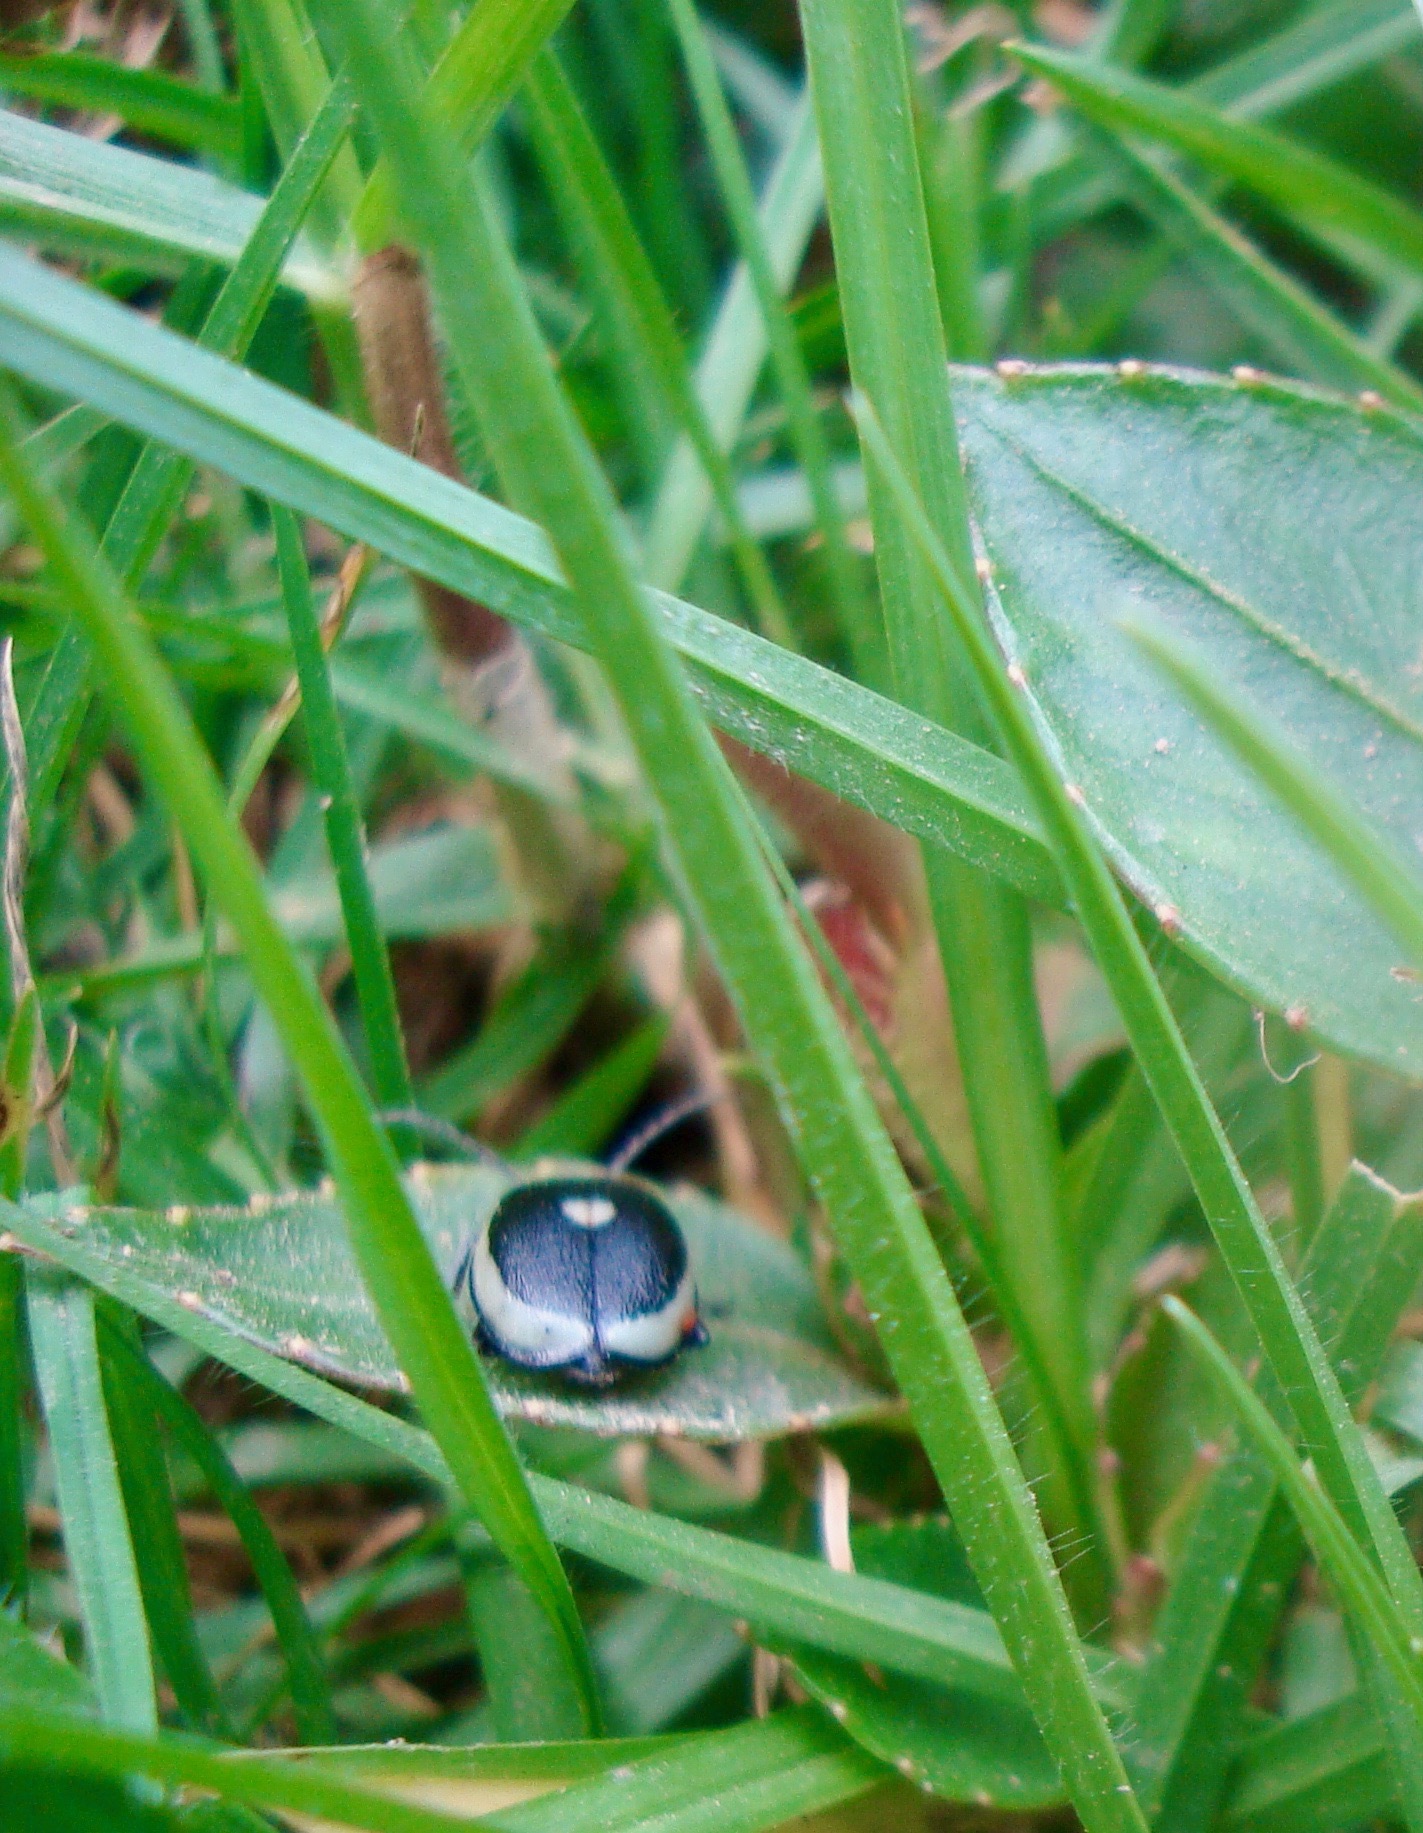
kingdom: Animalia
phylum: Arthropoda
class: Insecta
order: Coleoptera
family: Chrysomelidae
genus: Aspicela
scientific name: Aspicela
